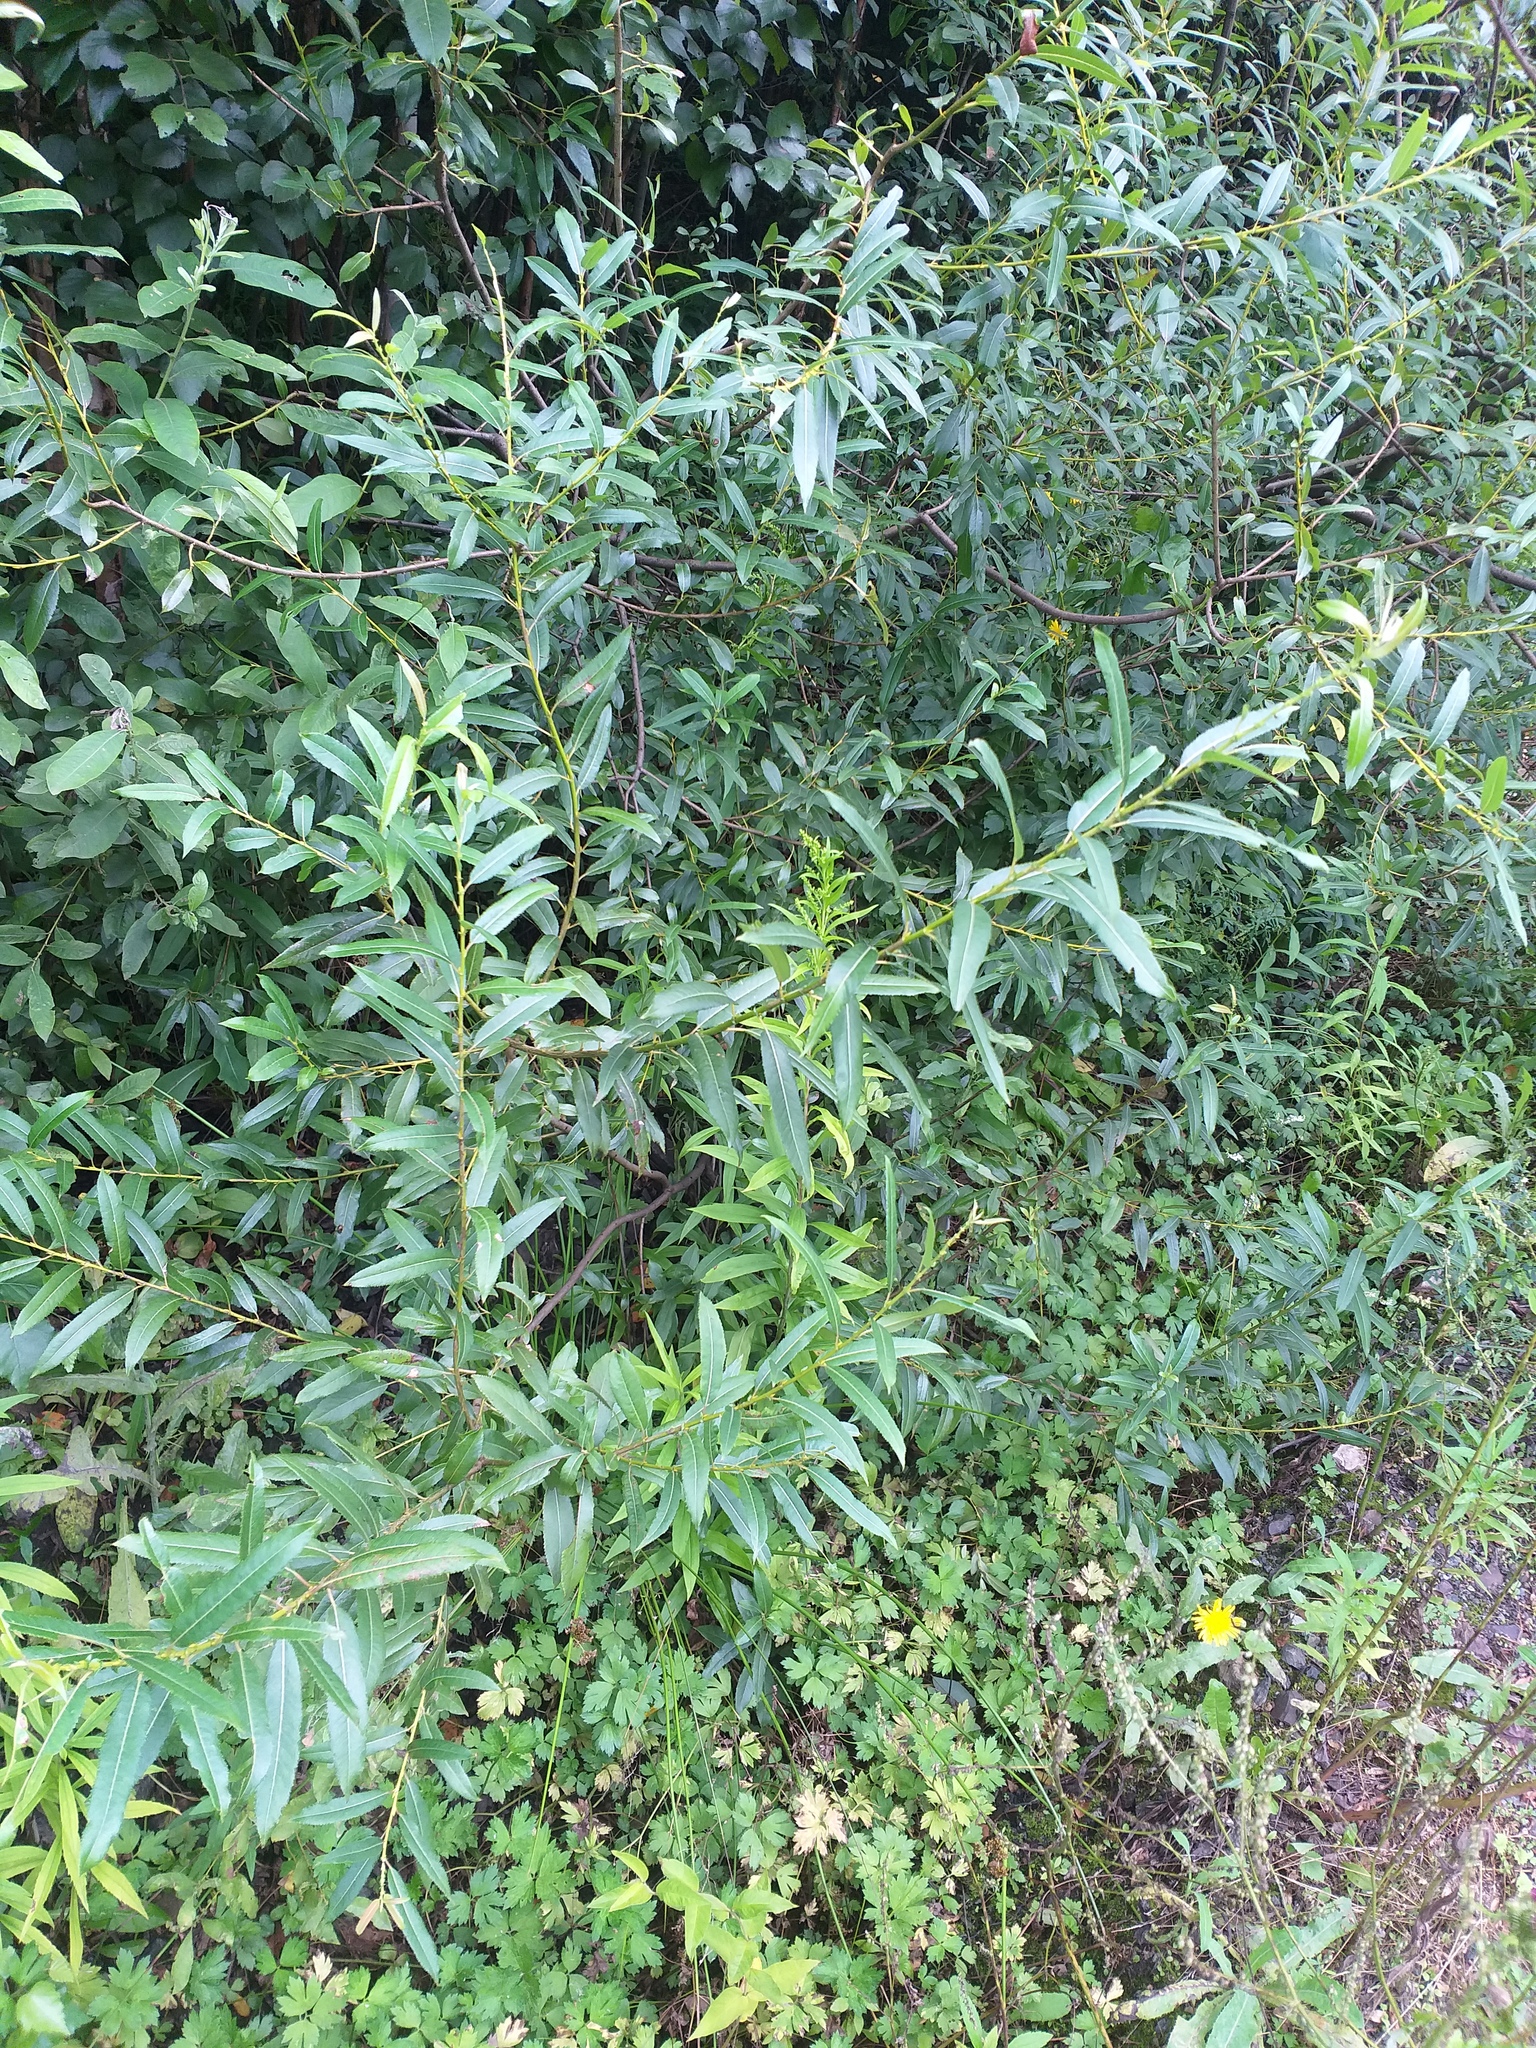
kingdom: Plantae
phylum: Tracheophyta
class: Magnoliopsida
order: Malpighiales
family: Salicaceae
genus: Salix
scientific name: Salix triandra
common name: Almond willow
